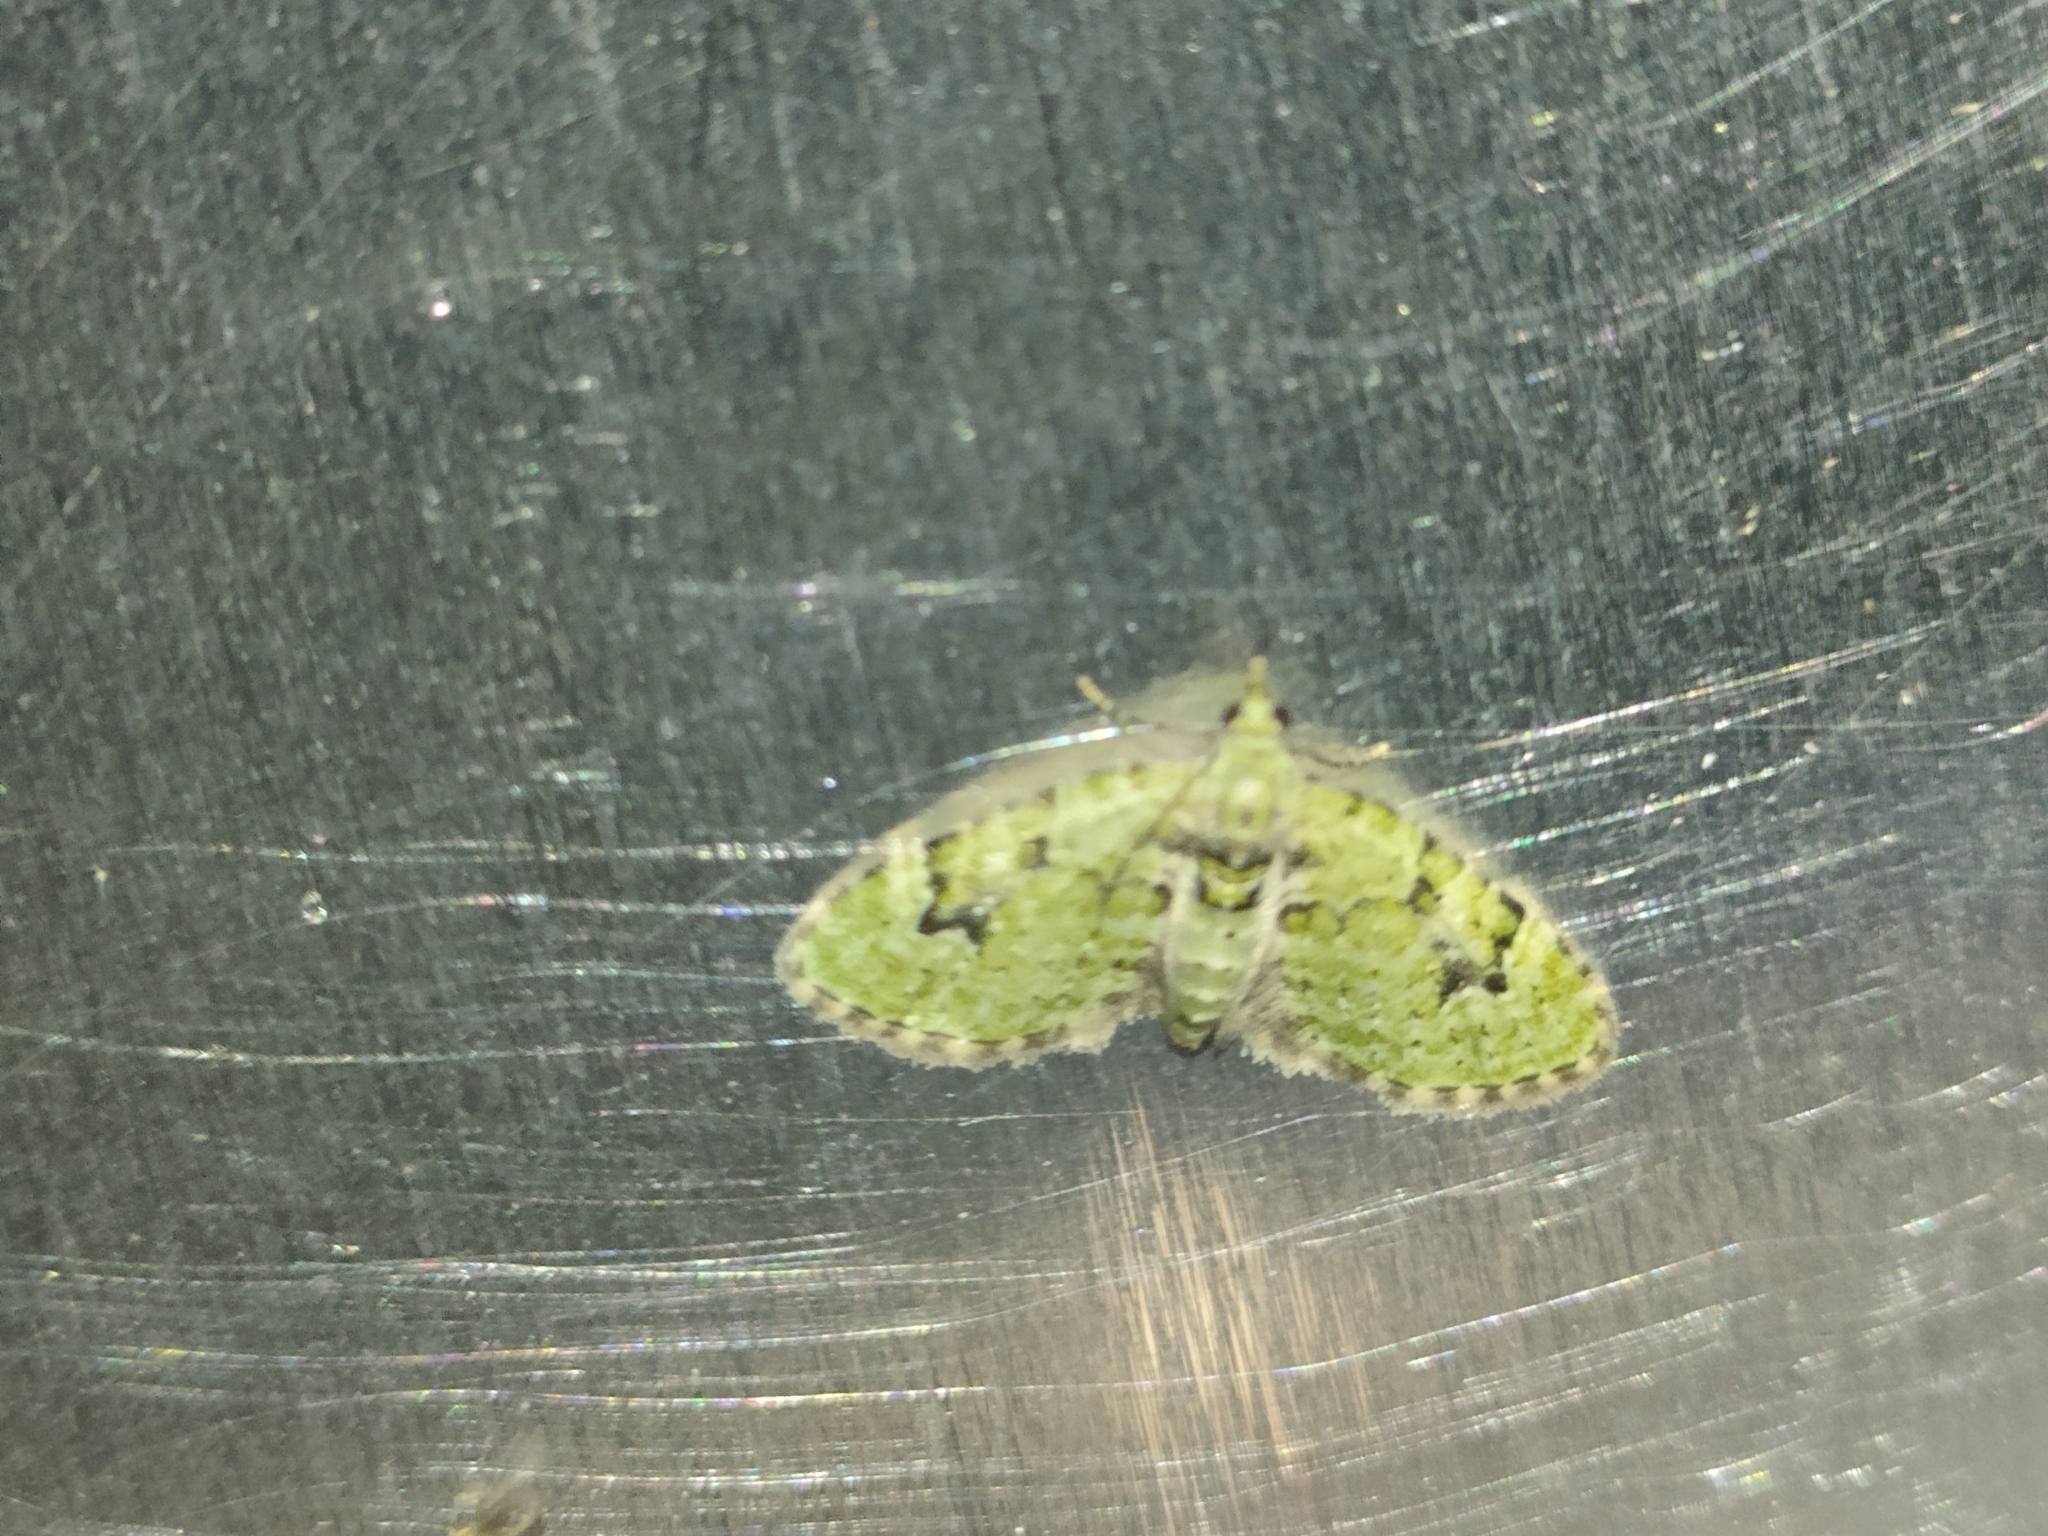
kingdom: Animalia
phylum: Arthropoda
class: Insecta
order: Lepidoptera
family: Geometridae
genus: Chloroclystis
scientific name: Chloroclystis v-ata
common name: V-pug
